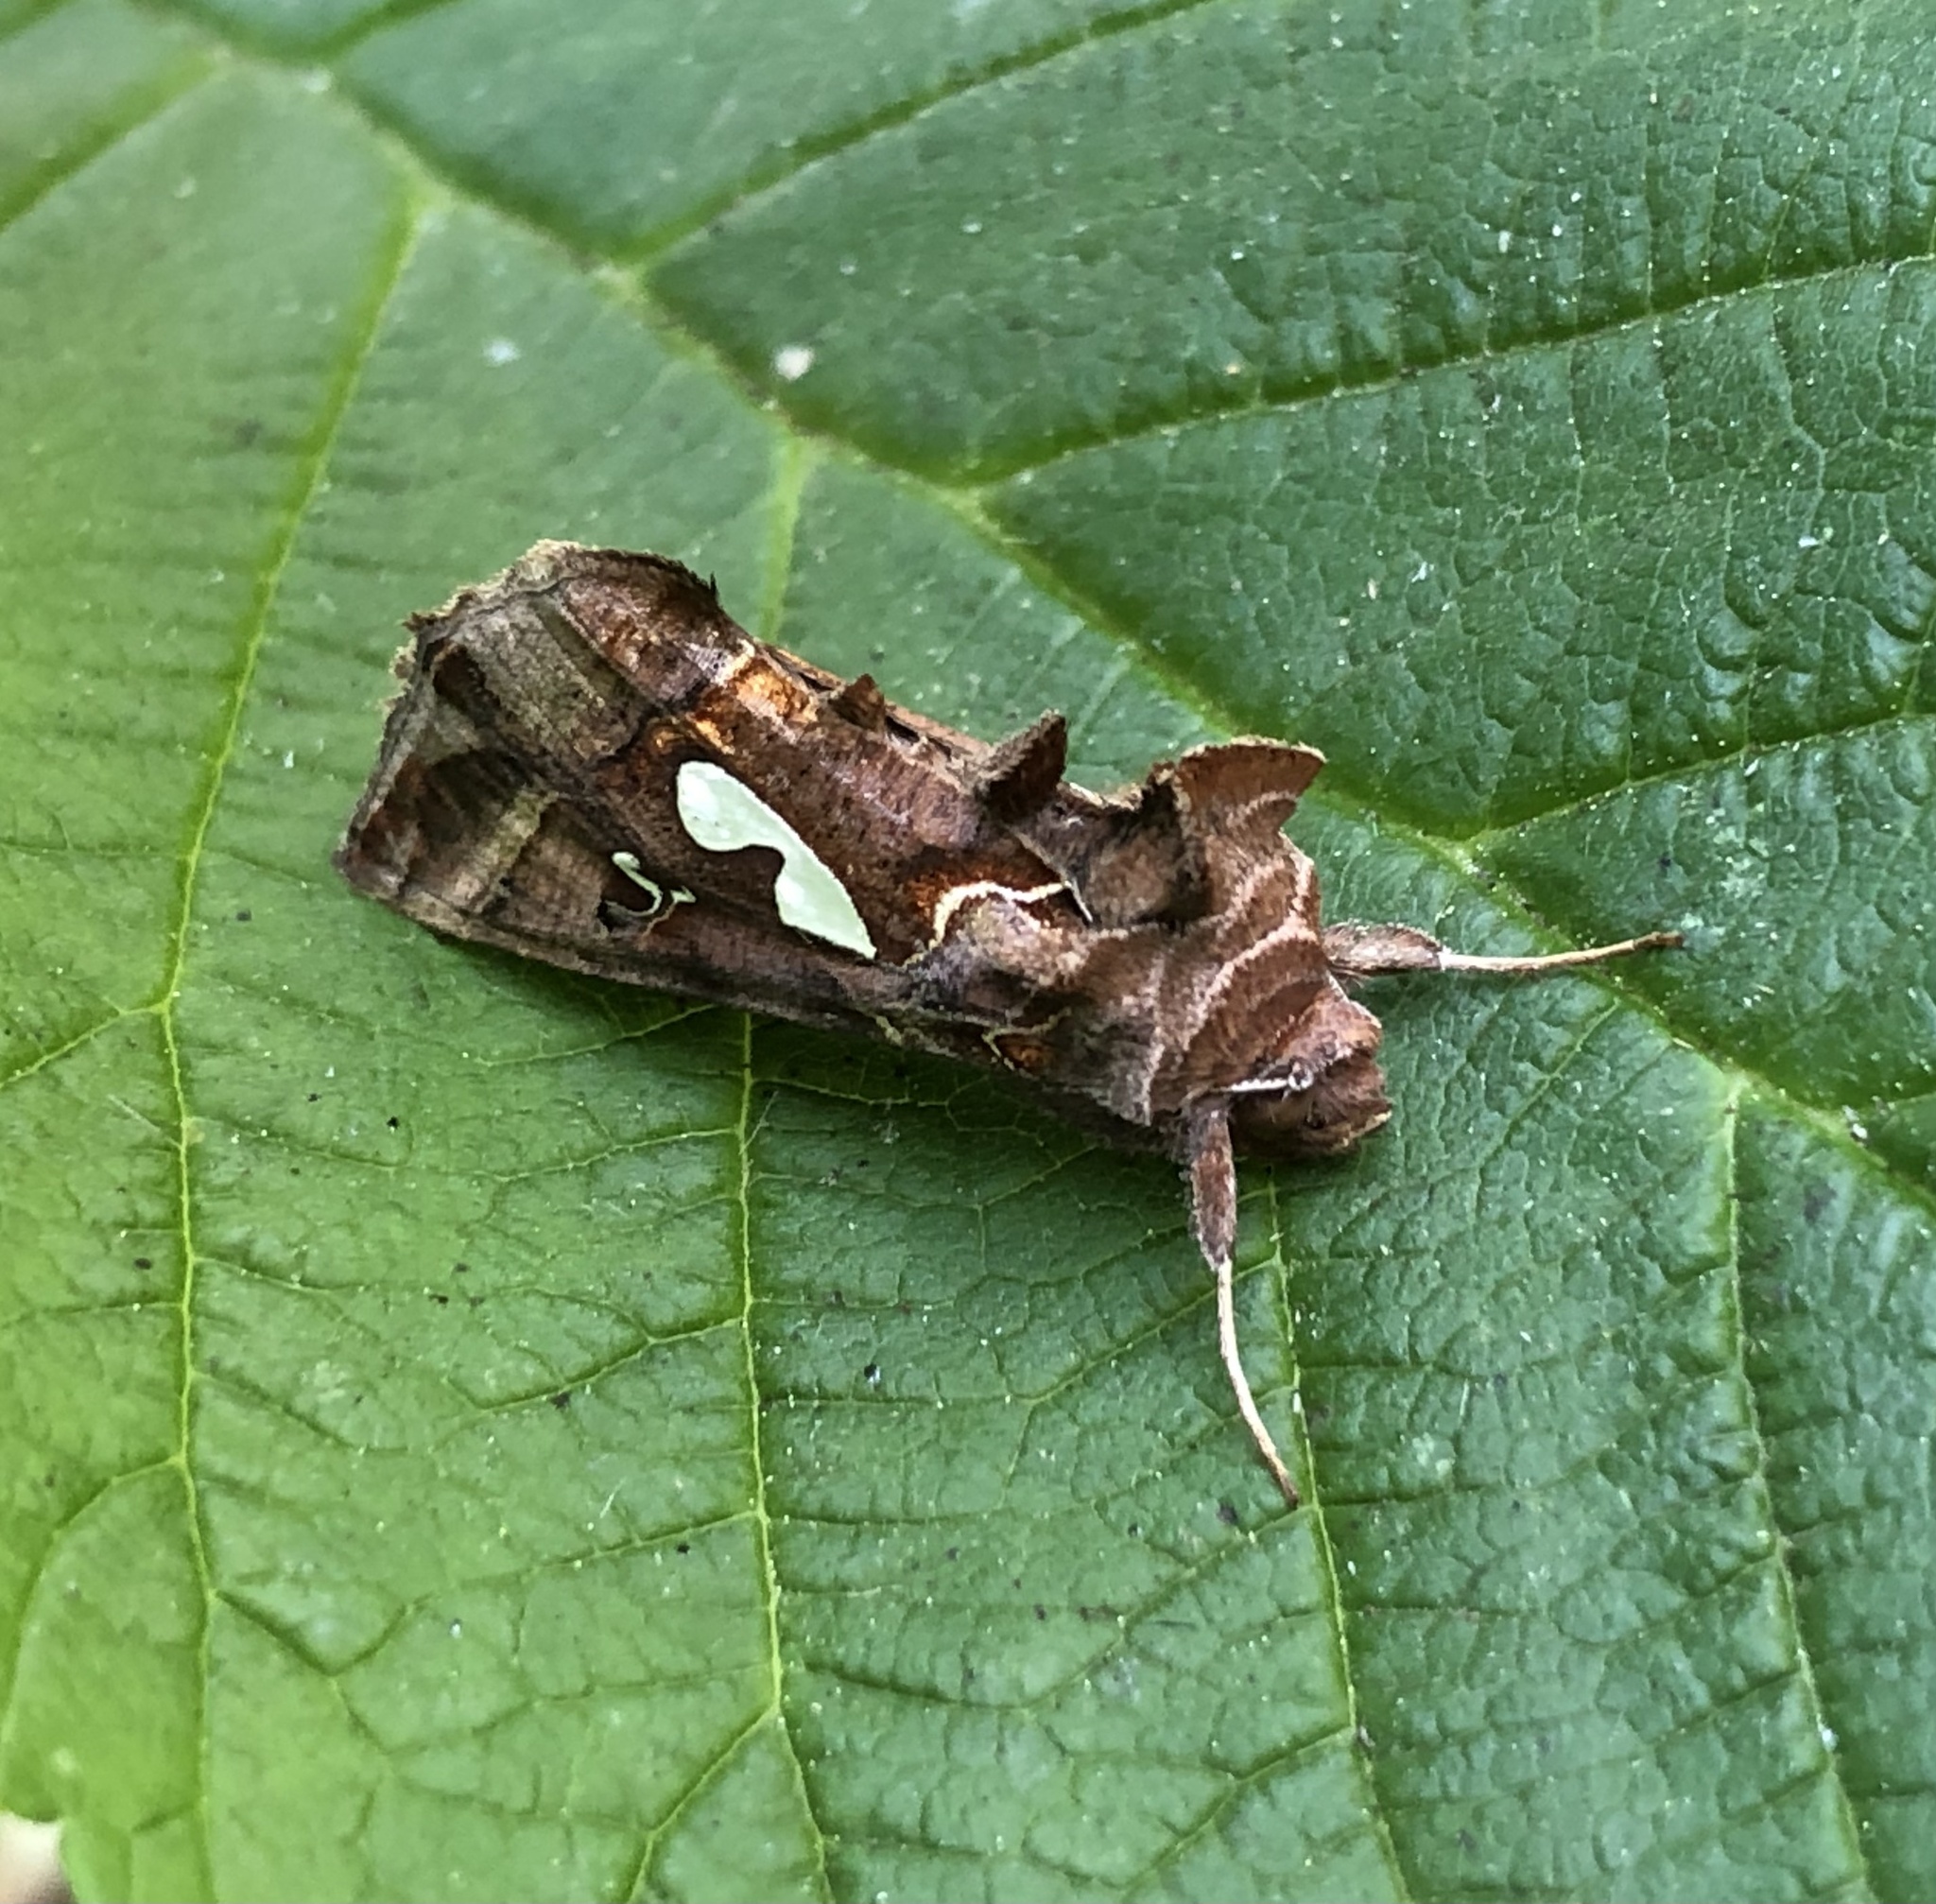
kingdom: Animalia
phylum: Arthropoda
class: Insecta
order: Lepidoptera
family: Noctuidae
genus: Megalographa
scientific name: Megalographa biloba
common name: Cutworm
